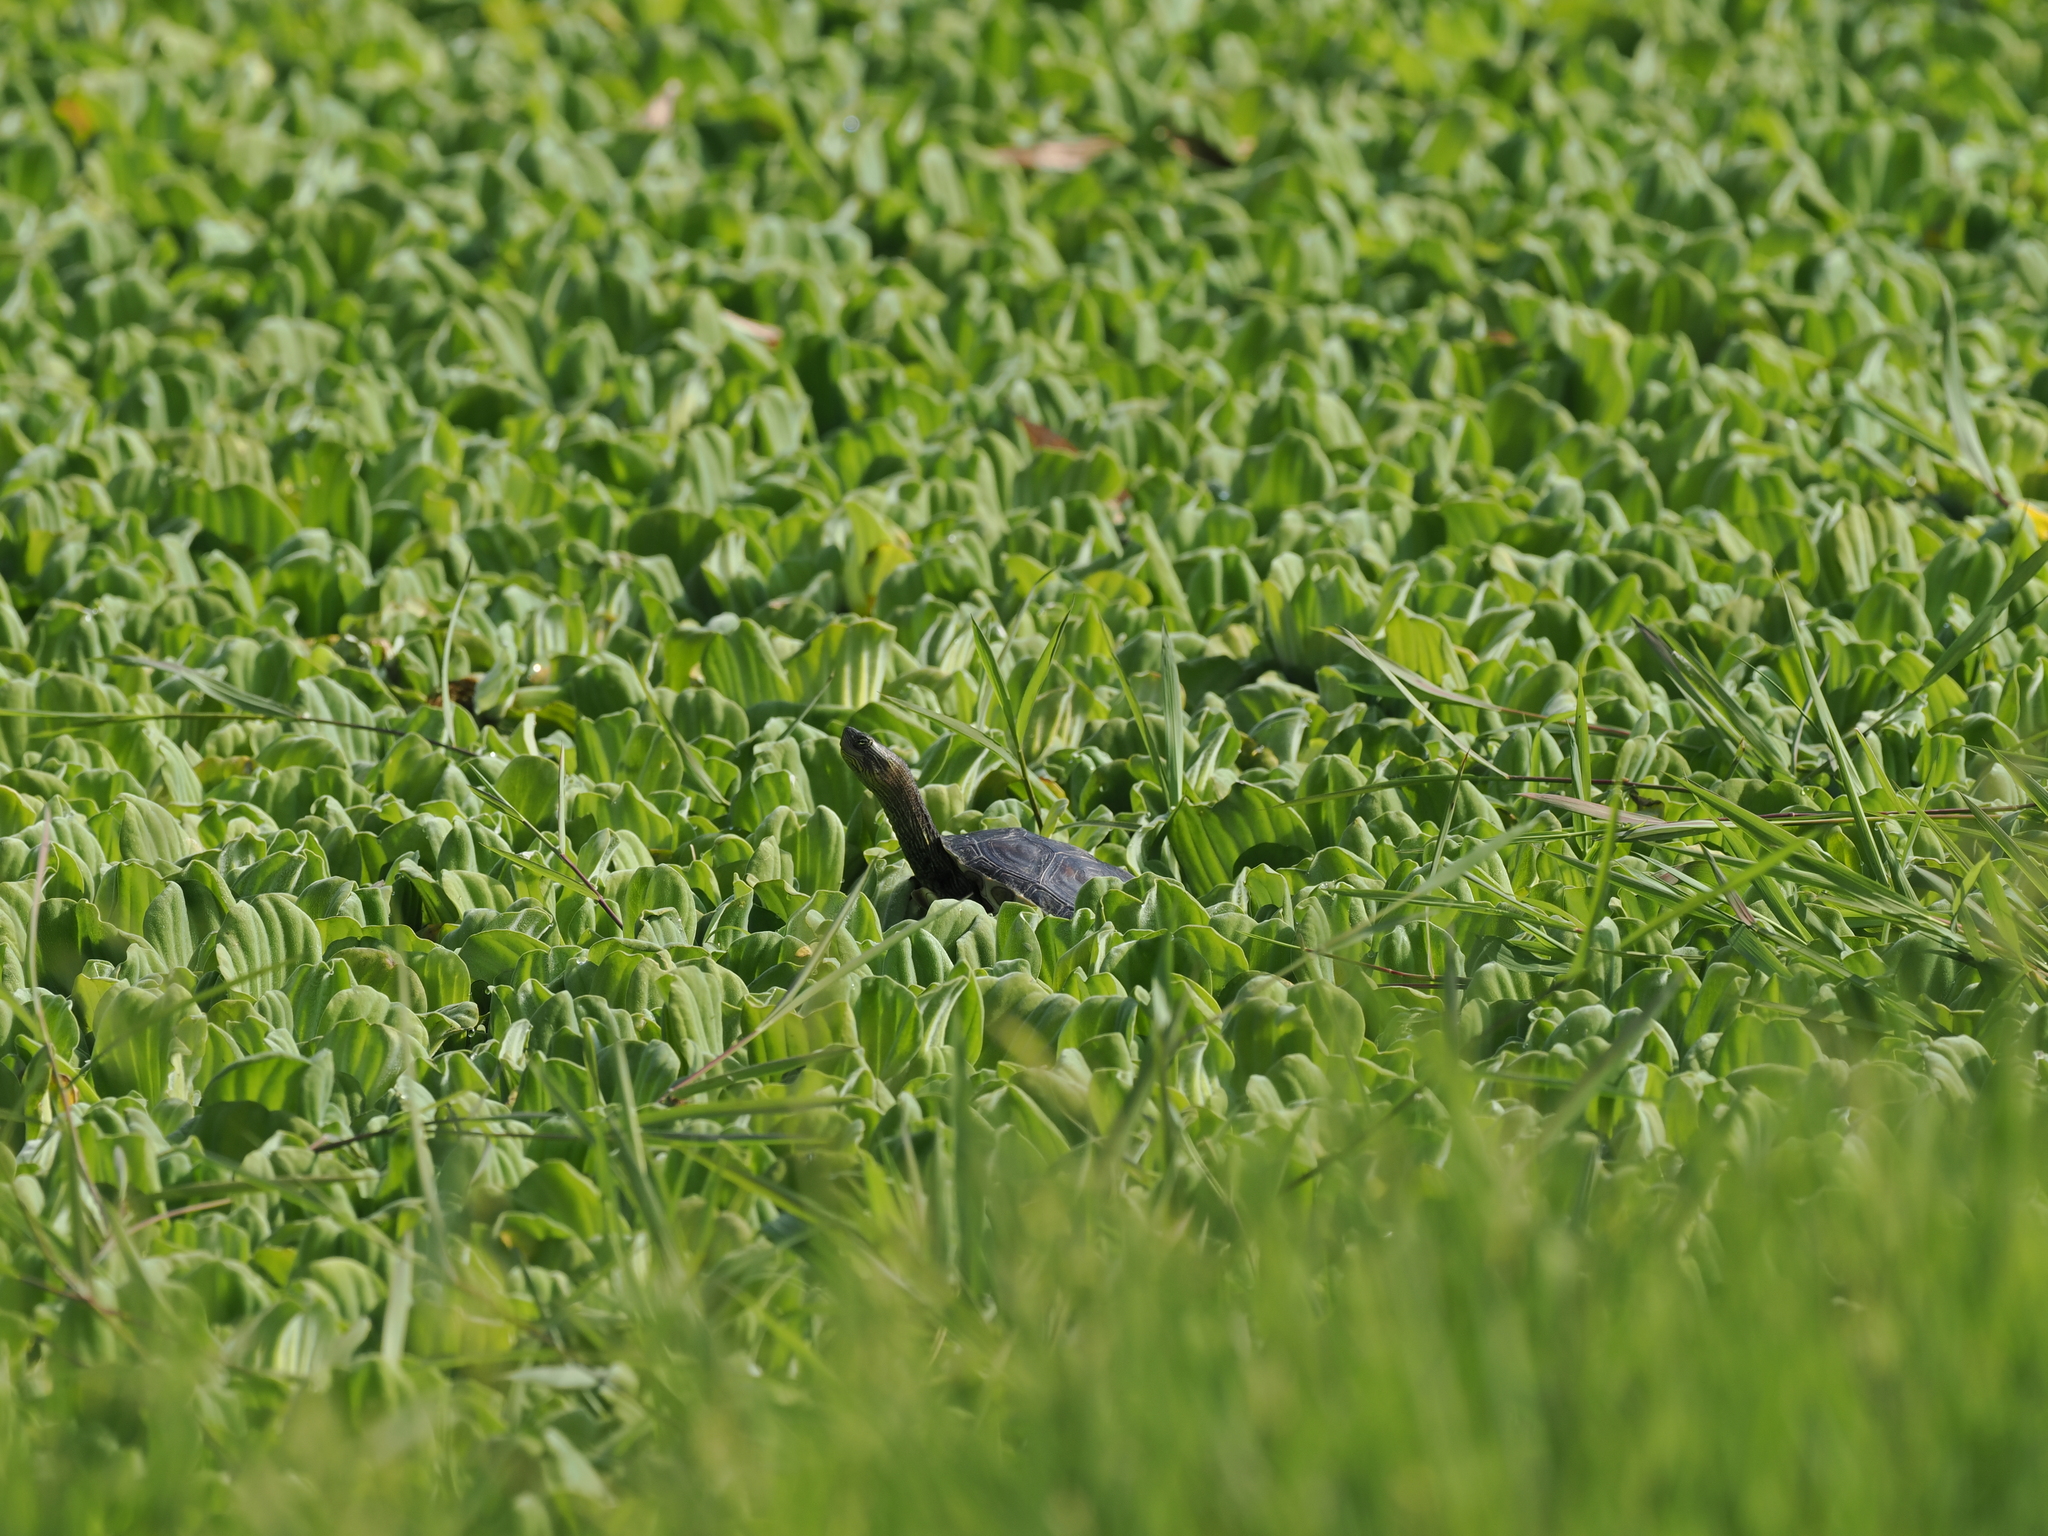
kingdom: Animalia
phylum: Chordata
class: Testudines
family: Geoemydidae
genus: Mauremys
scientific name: Mauremys sinensis
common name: Chinese stripe-necked turtle
